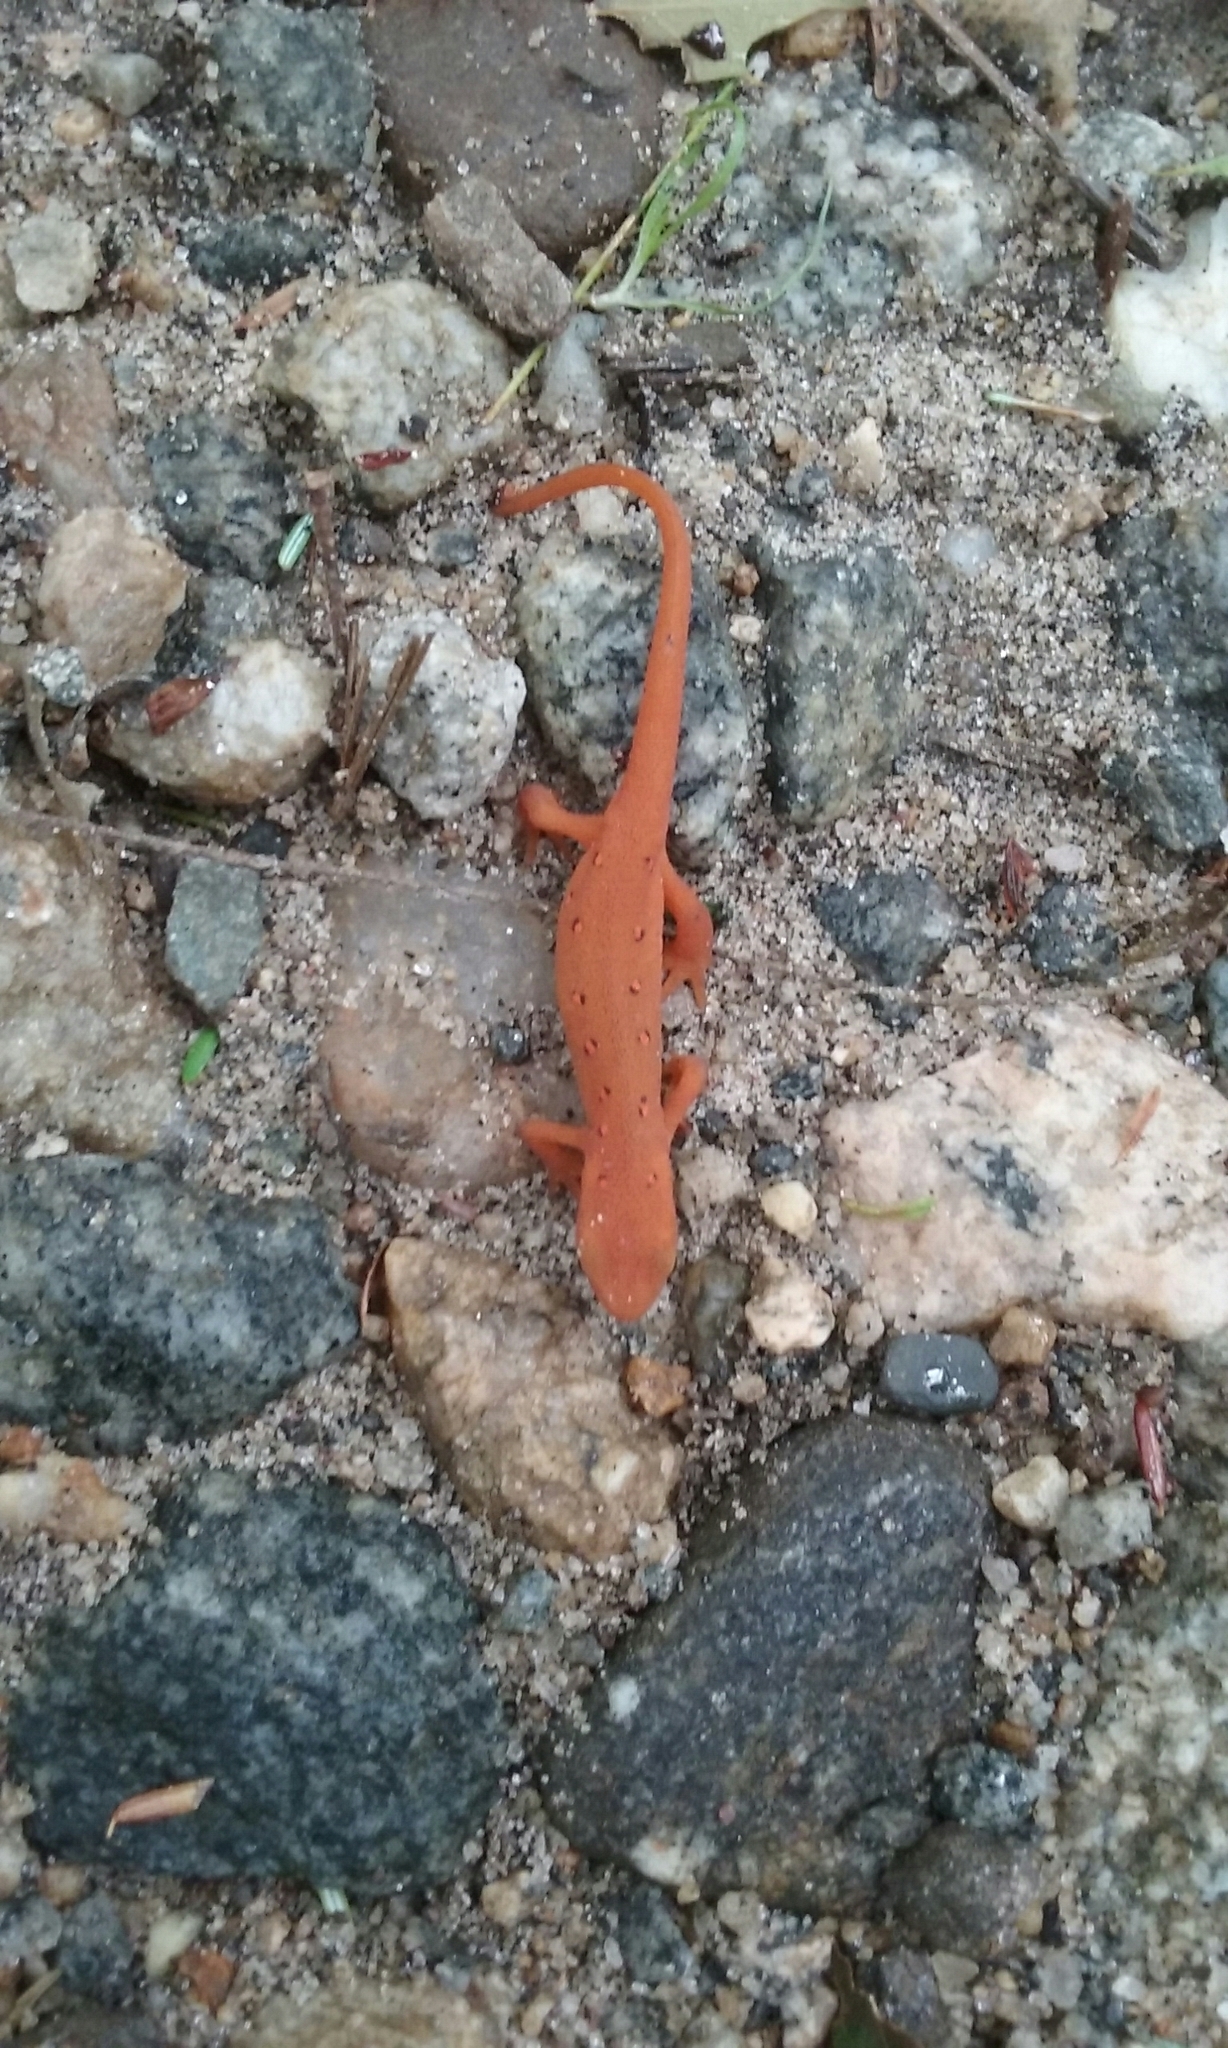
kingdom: Animalia
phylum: Chordata
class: Amphibia
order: Caudata
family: Salamandridae
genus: Notophthalmus
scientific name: Notophthalmus viridescens
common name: Eastern newt
